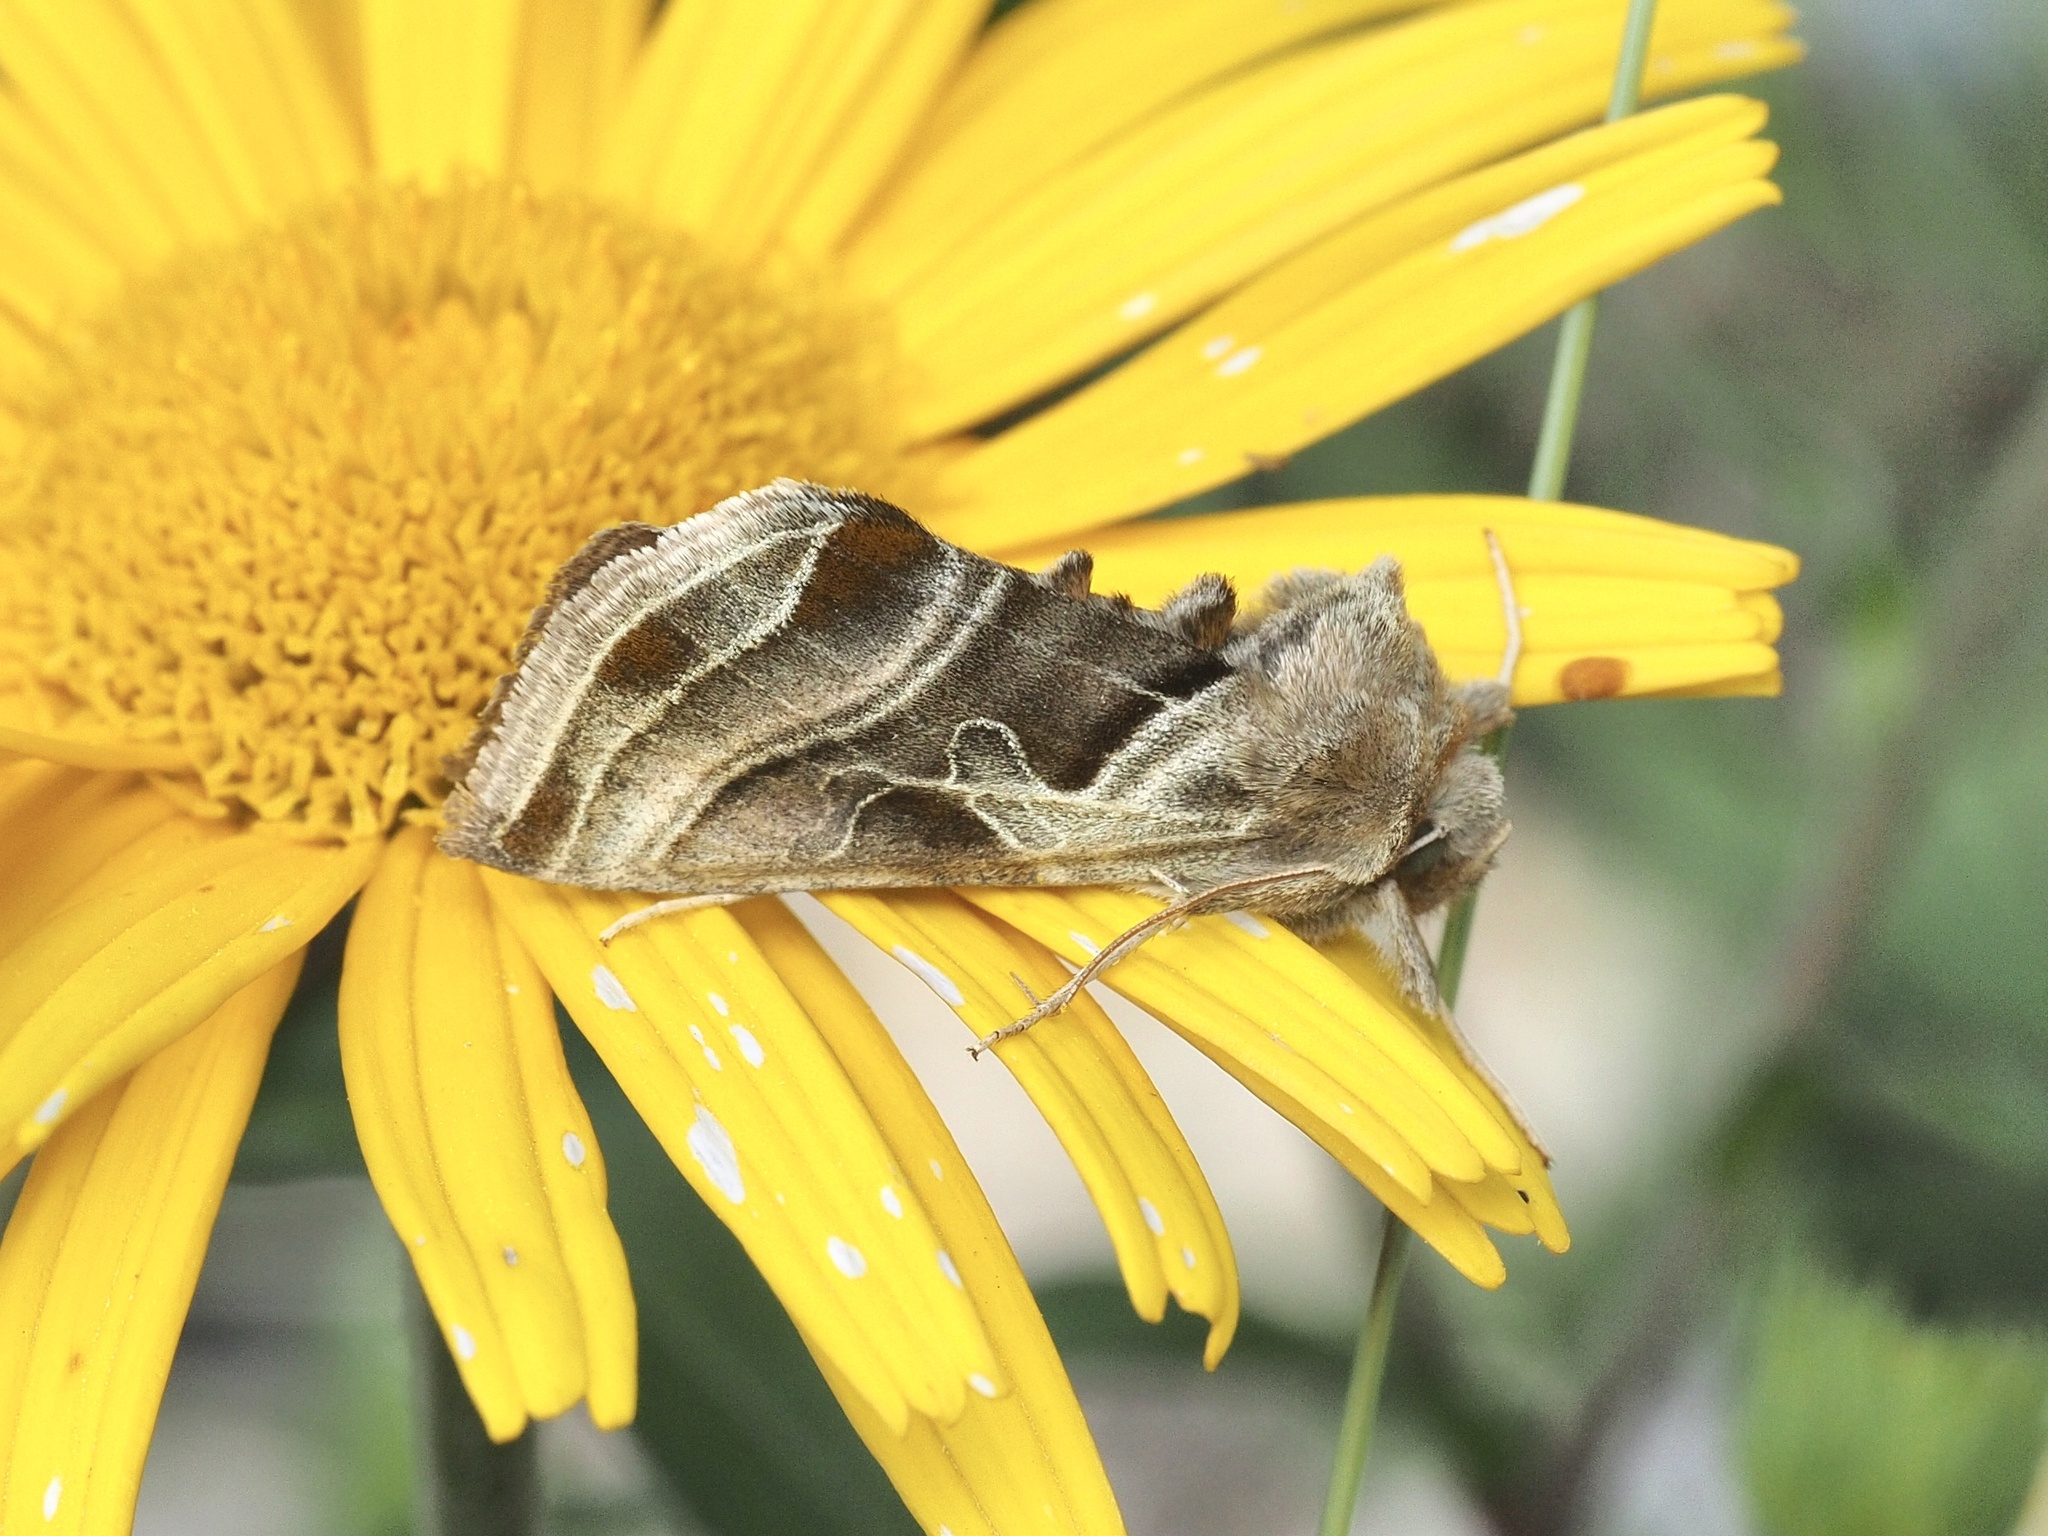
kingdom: Animalia
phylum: Arthropoda
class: Insecta
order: Lepidoptera
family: Noctuidae
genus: Euchalcia
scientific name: Euchalcia variabilis
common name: Purple-shaded gem
